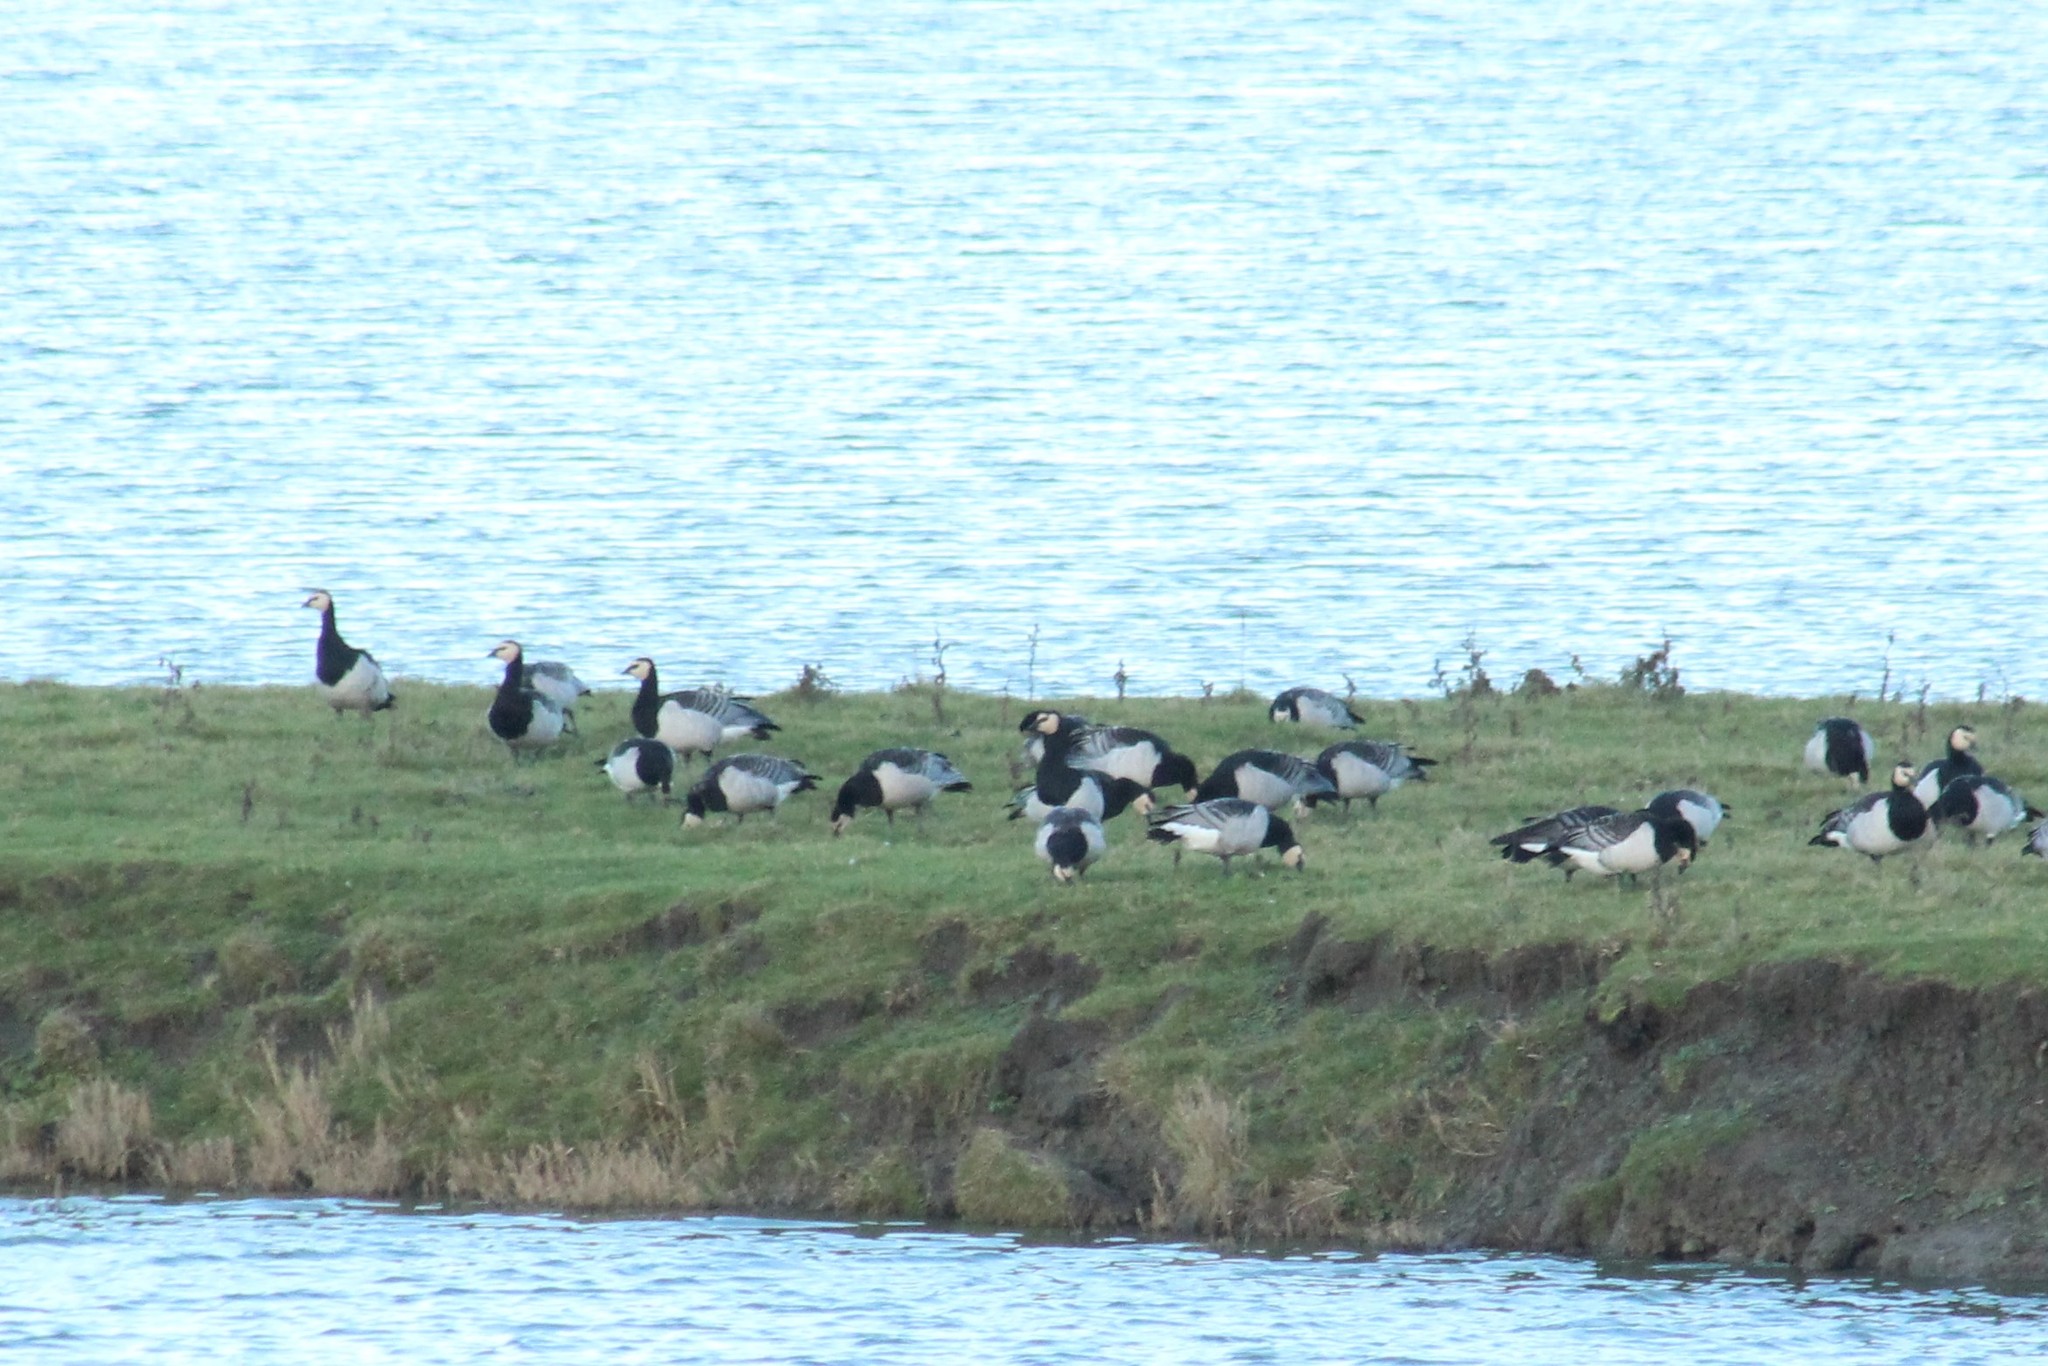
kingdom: Animalia
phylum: Chordata
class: Aves
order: Anseriformes
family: Anatidae
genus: Branta
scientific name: Branta leucopsis
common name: Barnacle goose
